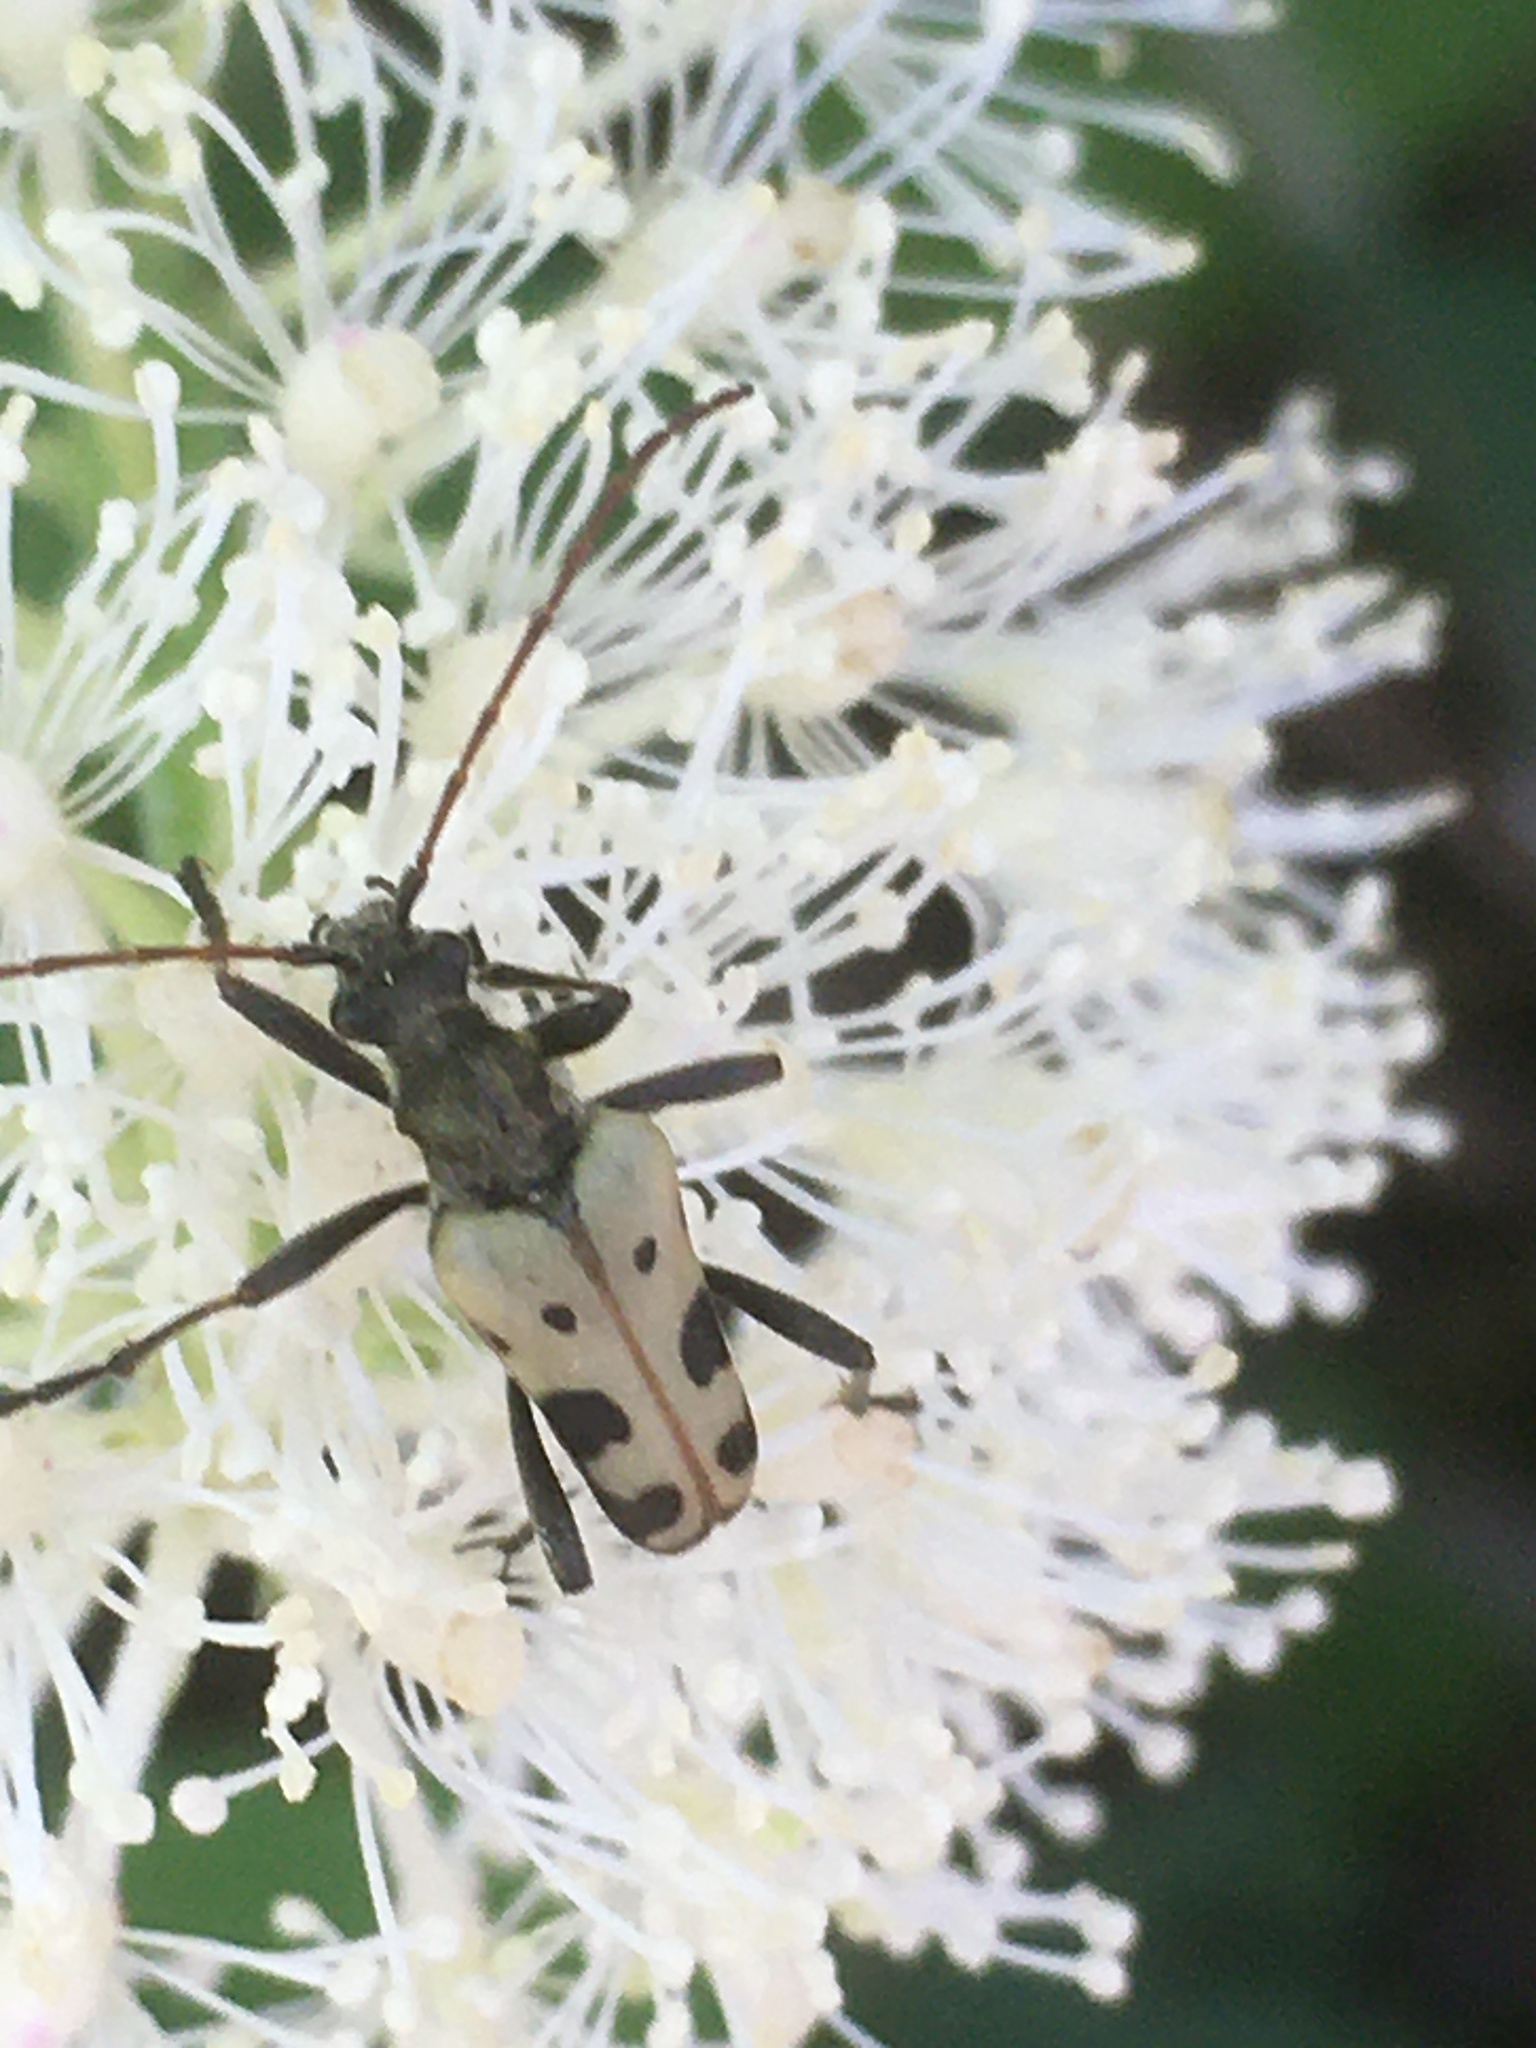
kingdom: Animalia
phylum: Arthropoda
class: Insecta
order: Coleoptera
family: Cerambycidae
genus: Evodinus
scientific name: Evodinus monticola
